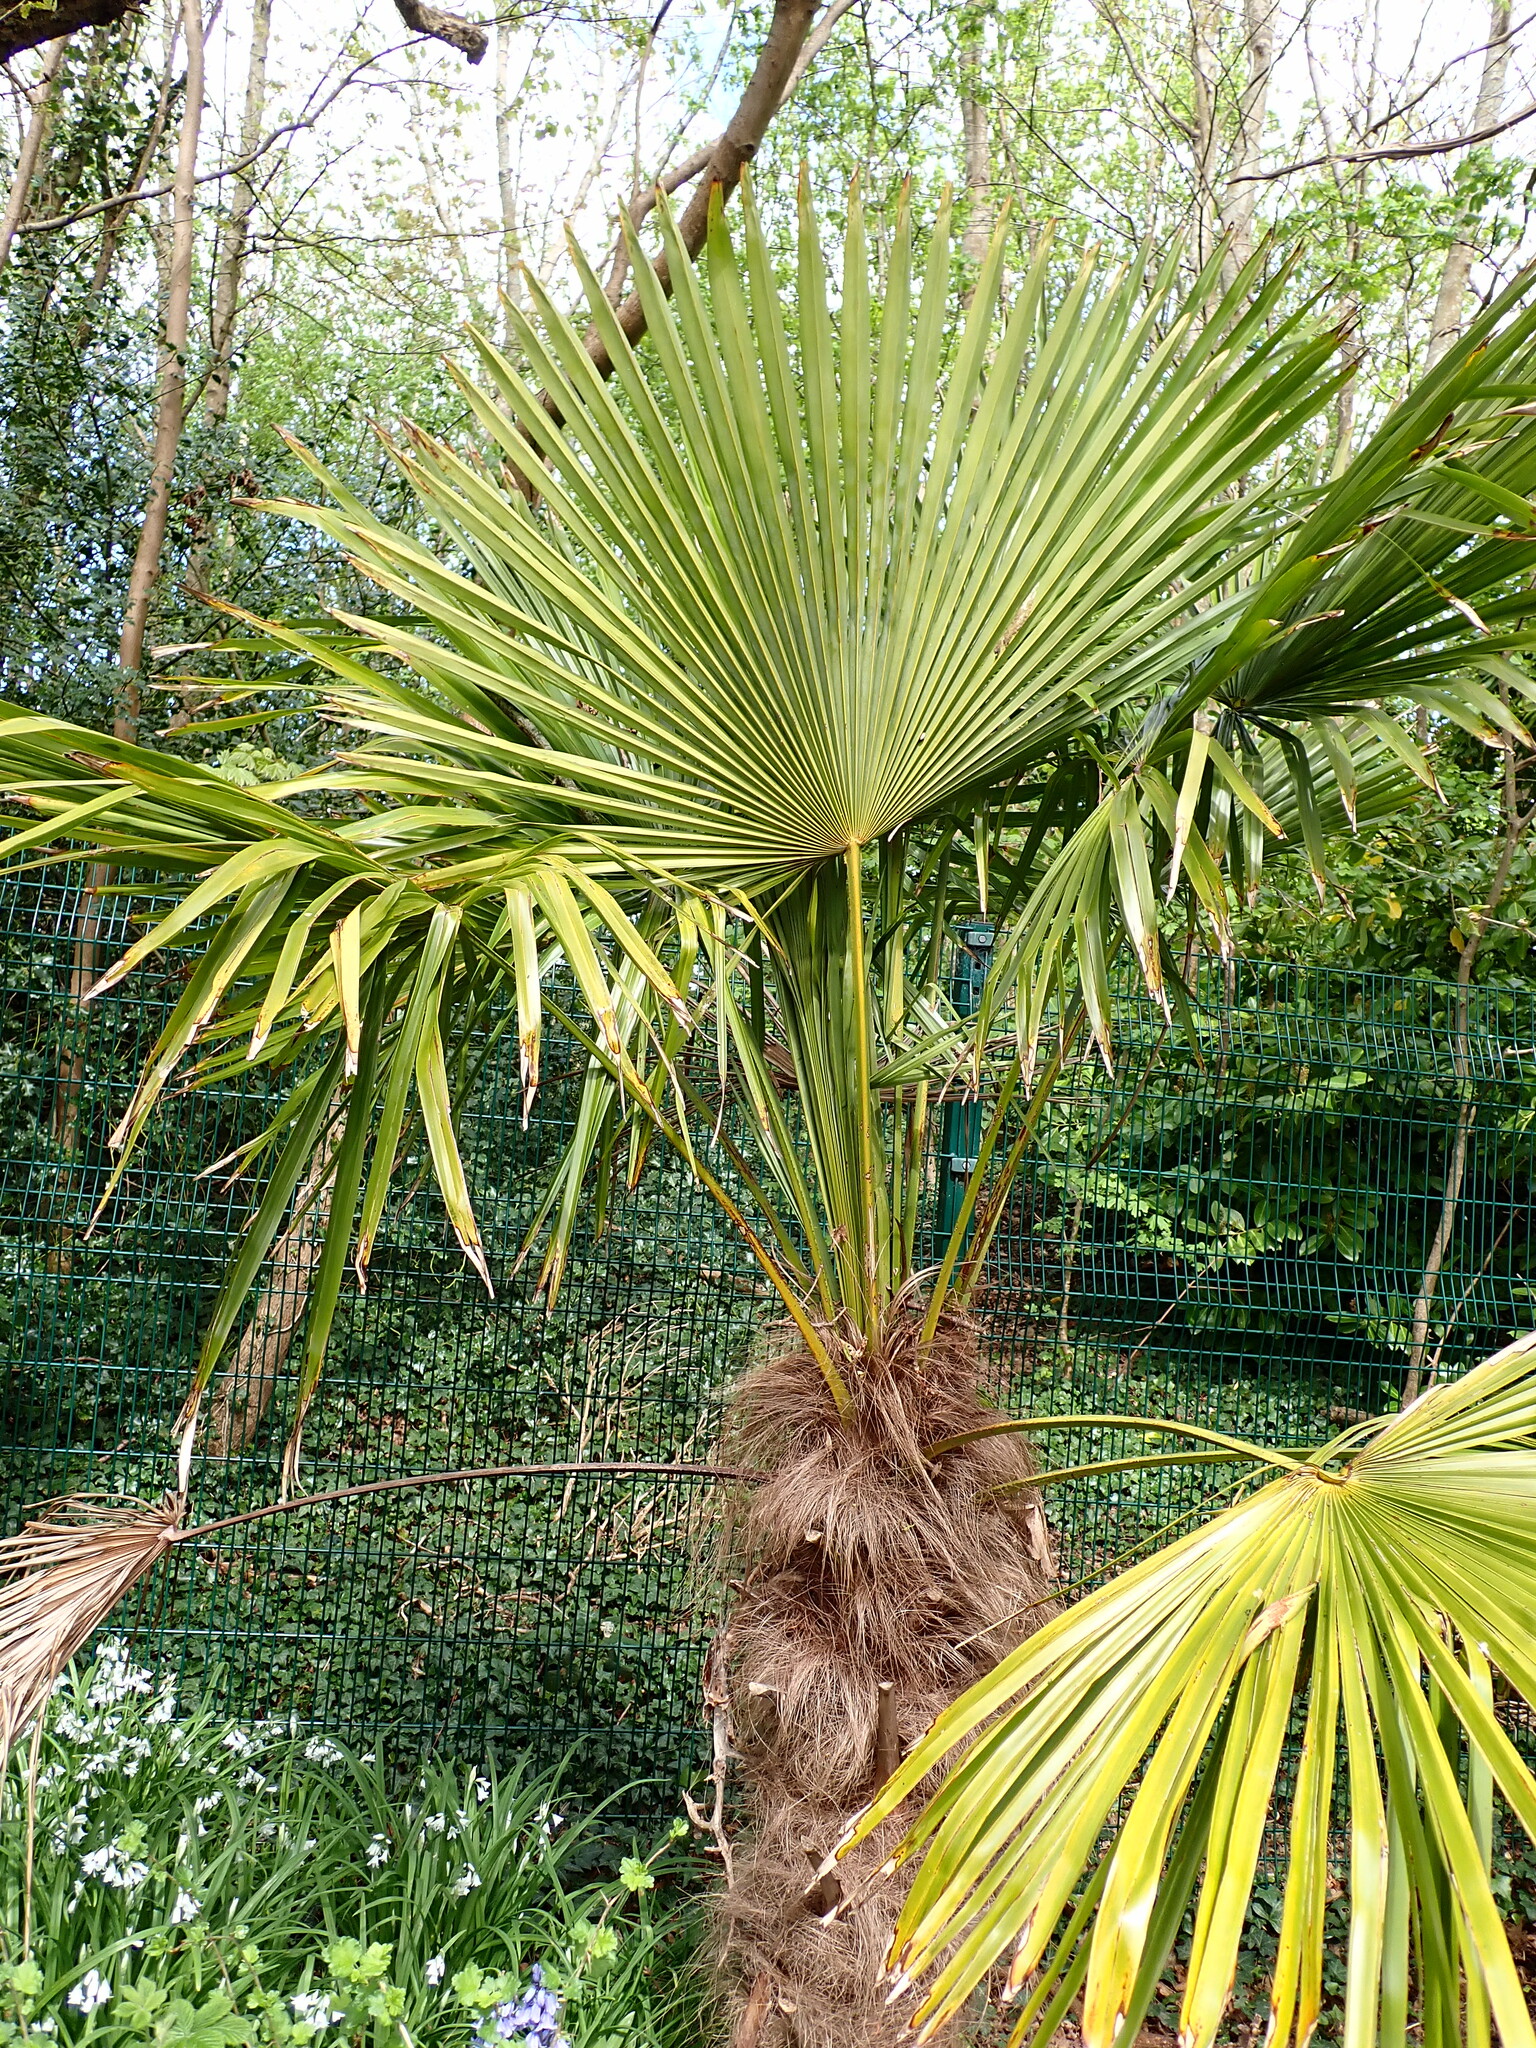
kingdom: Plantae
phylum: Tracheophyta
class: Liliopsida
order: Arecales
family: Arecaceae
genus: Trachycarpus
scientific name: Trachycarpus fortunei
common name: Chusan palm
